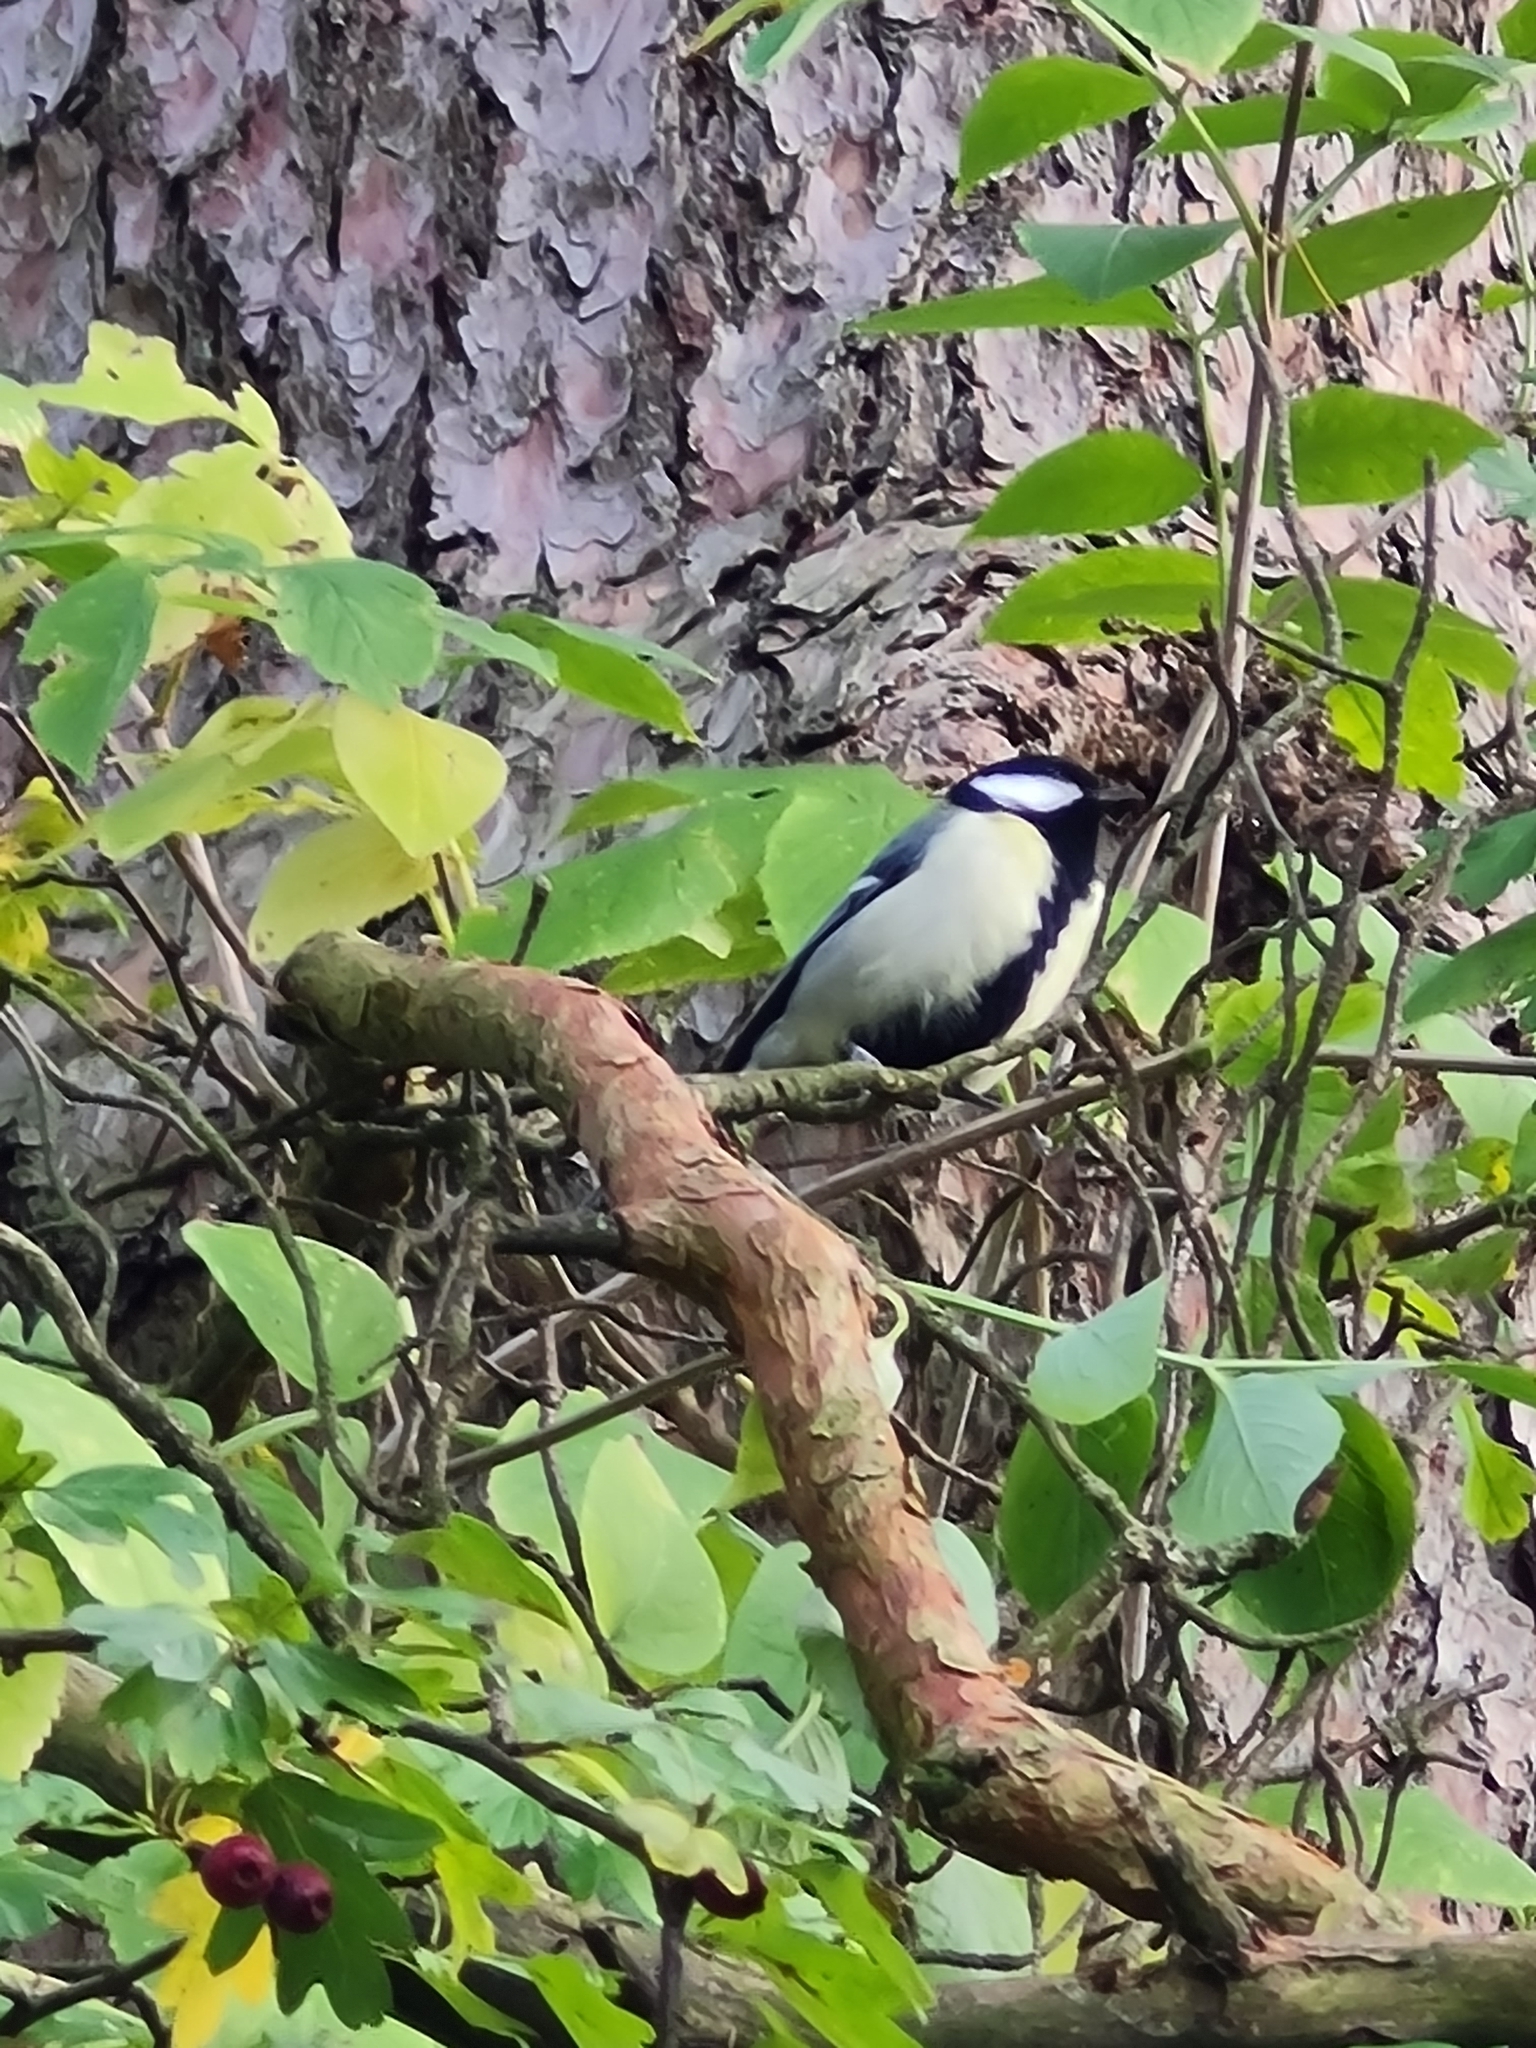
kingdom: Animalia
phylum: Chordata
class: Aves
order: Passeriformes
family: Paridae
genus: Parus
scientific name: Parus major
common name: Great tit
